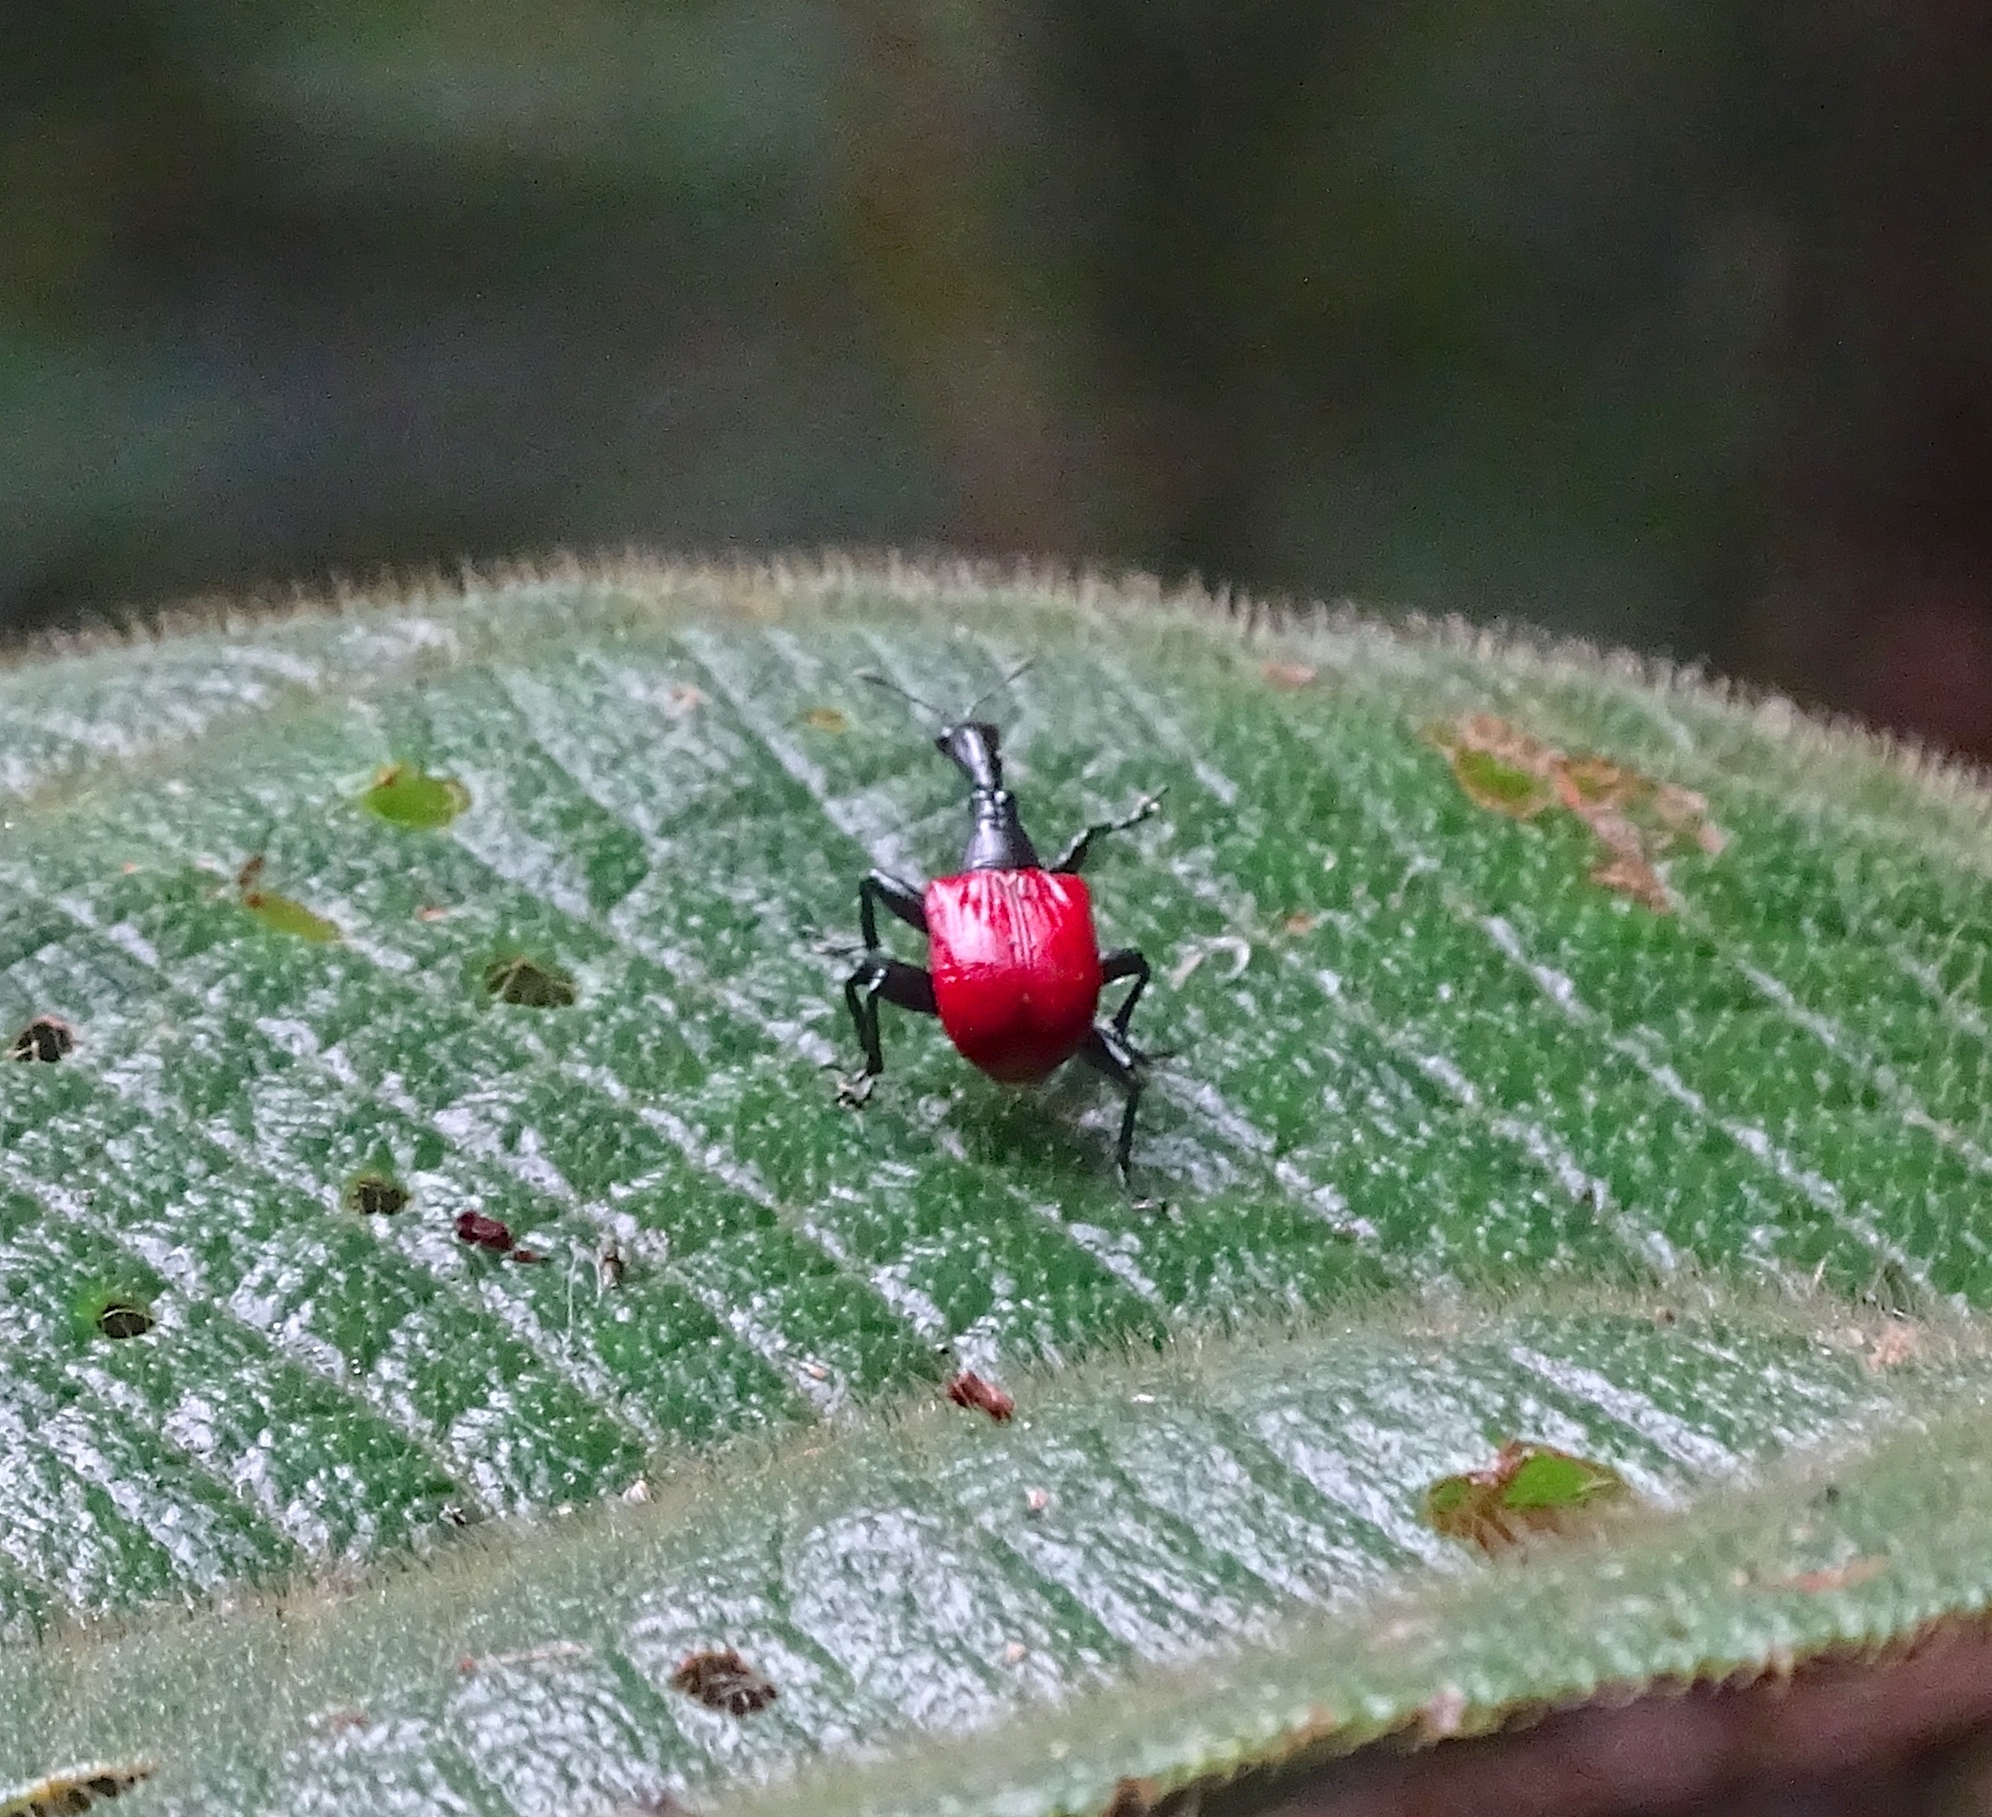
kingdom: Animalia
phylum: Arthropoda
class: Insecta
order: Coleoptera
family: Attelabidae
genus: Trachelophorus
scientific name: Trachelophorus giraffa
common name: Giraffe weevil
